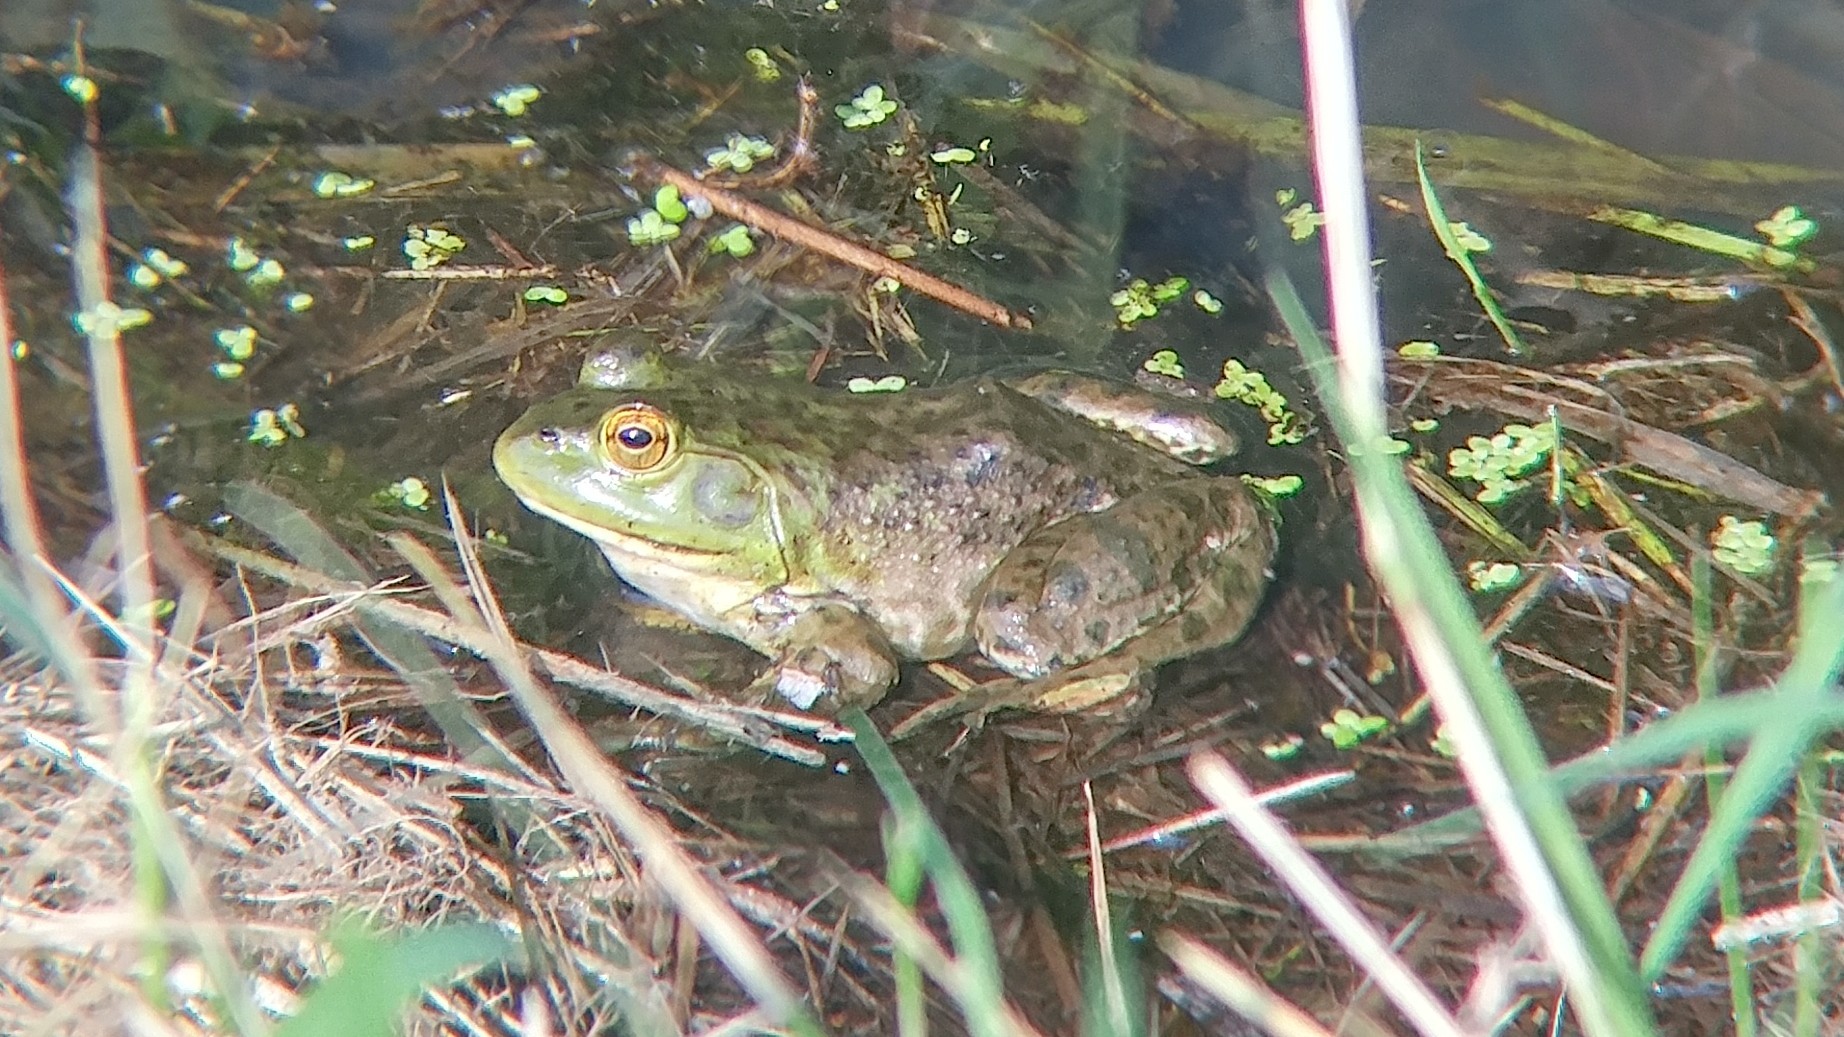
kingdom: Animalia
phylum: Chordata
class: Amphibia
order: Anura
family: Ranidae
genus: Lithobates
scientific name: Lithobates catesbeianus
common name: American bullfrog
